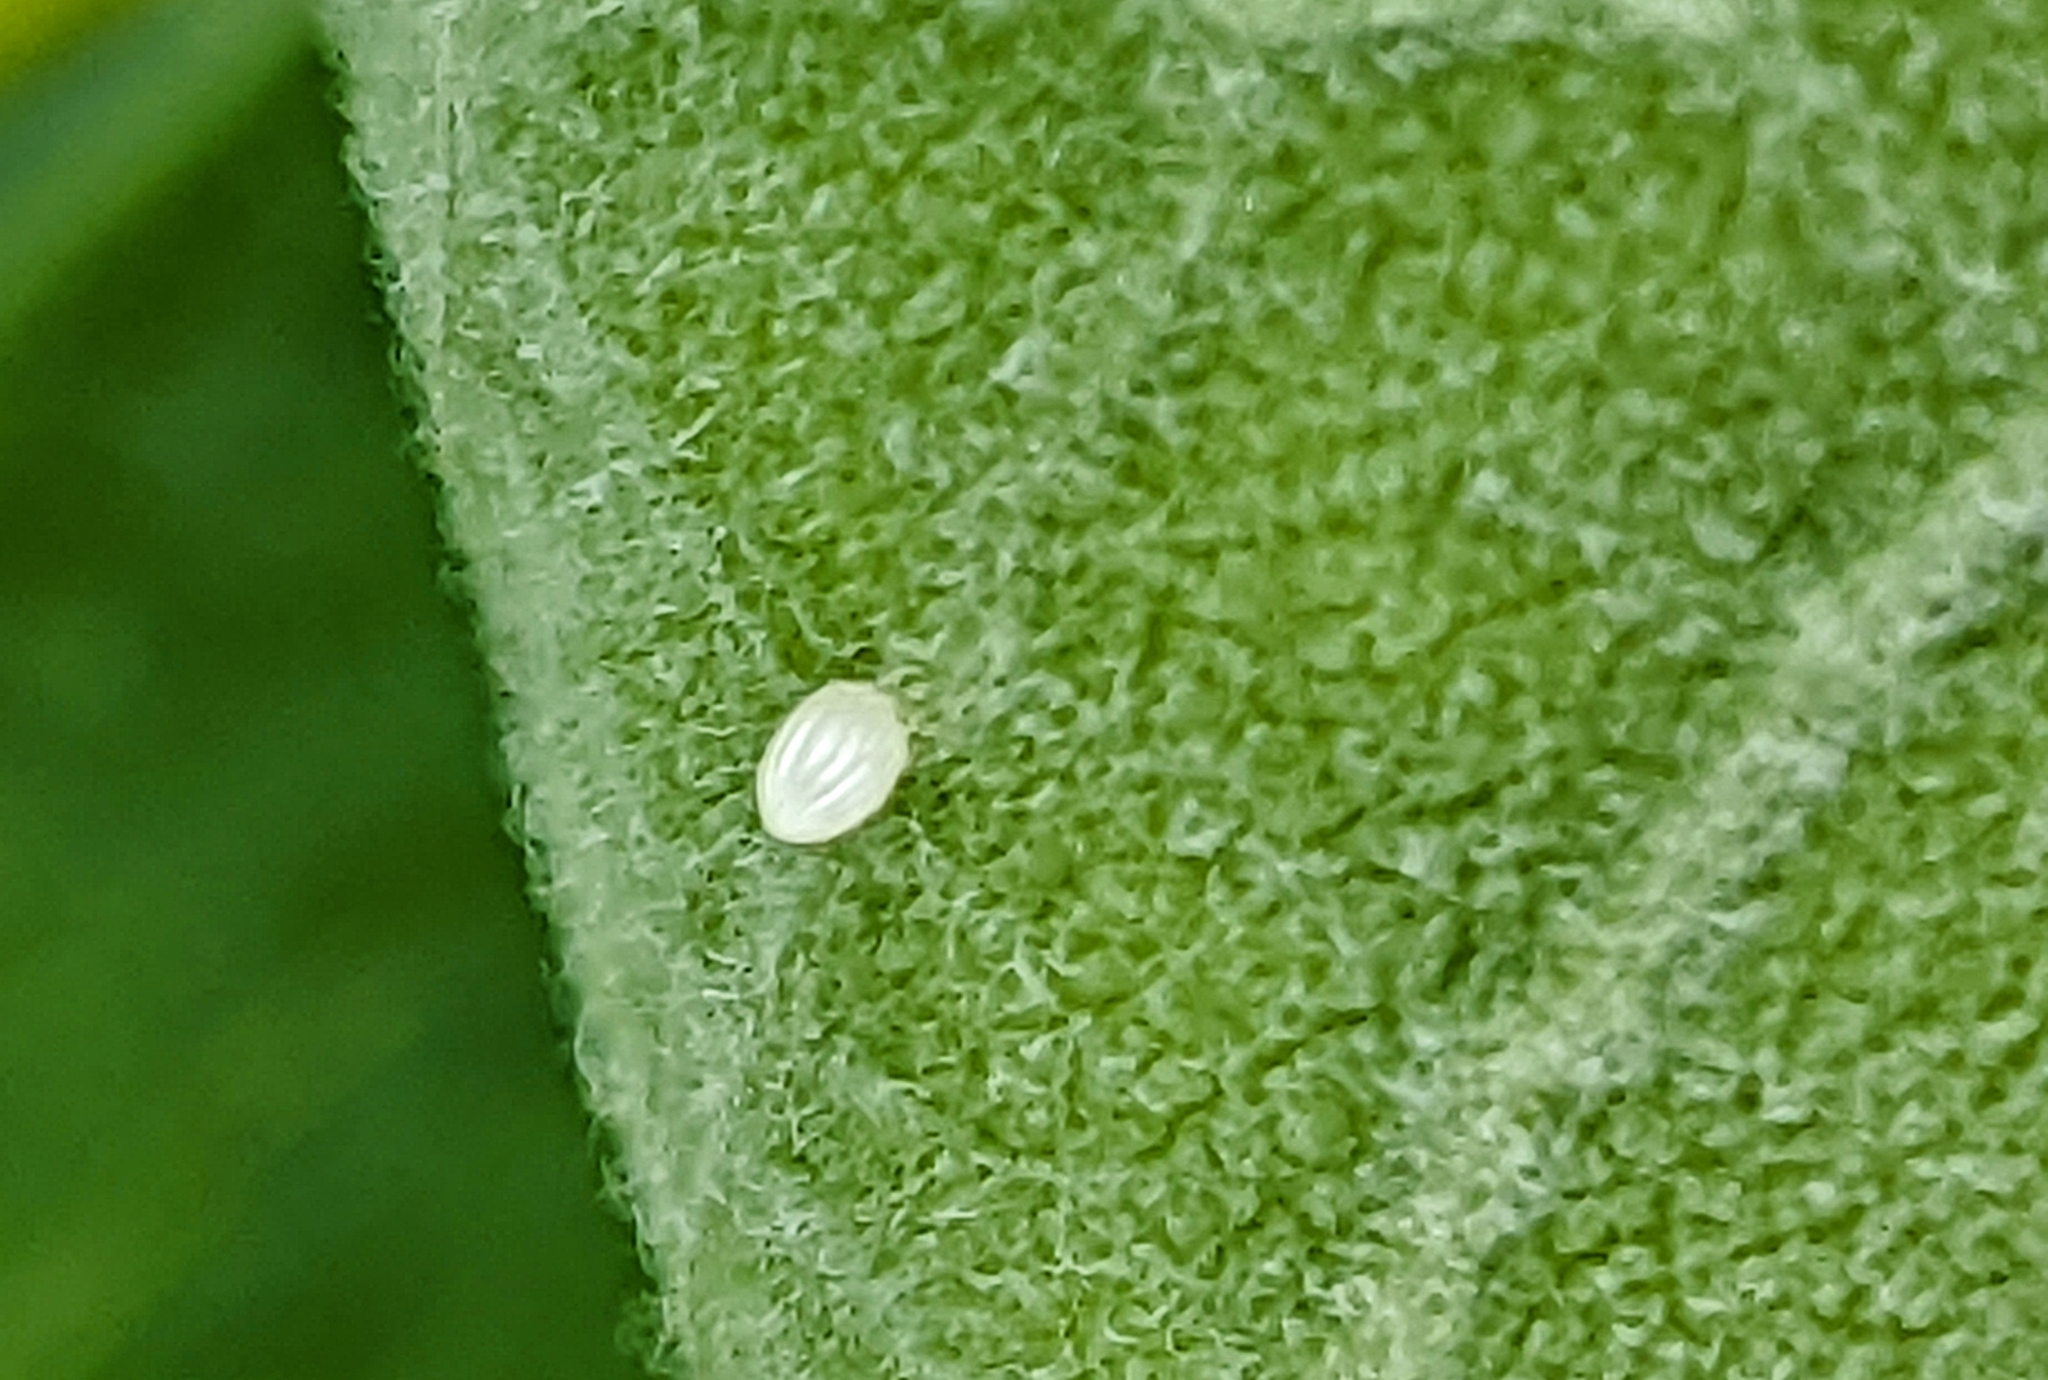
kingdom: Animalia
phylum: Arthropoda
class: Insecta
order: Lepidoptera
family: Nymphalidae
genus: Danaus
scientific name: Danaus plexippus
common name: Monarch
